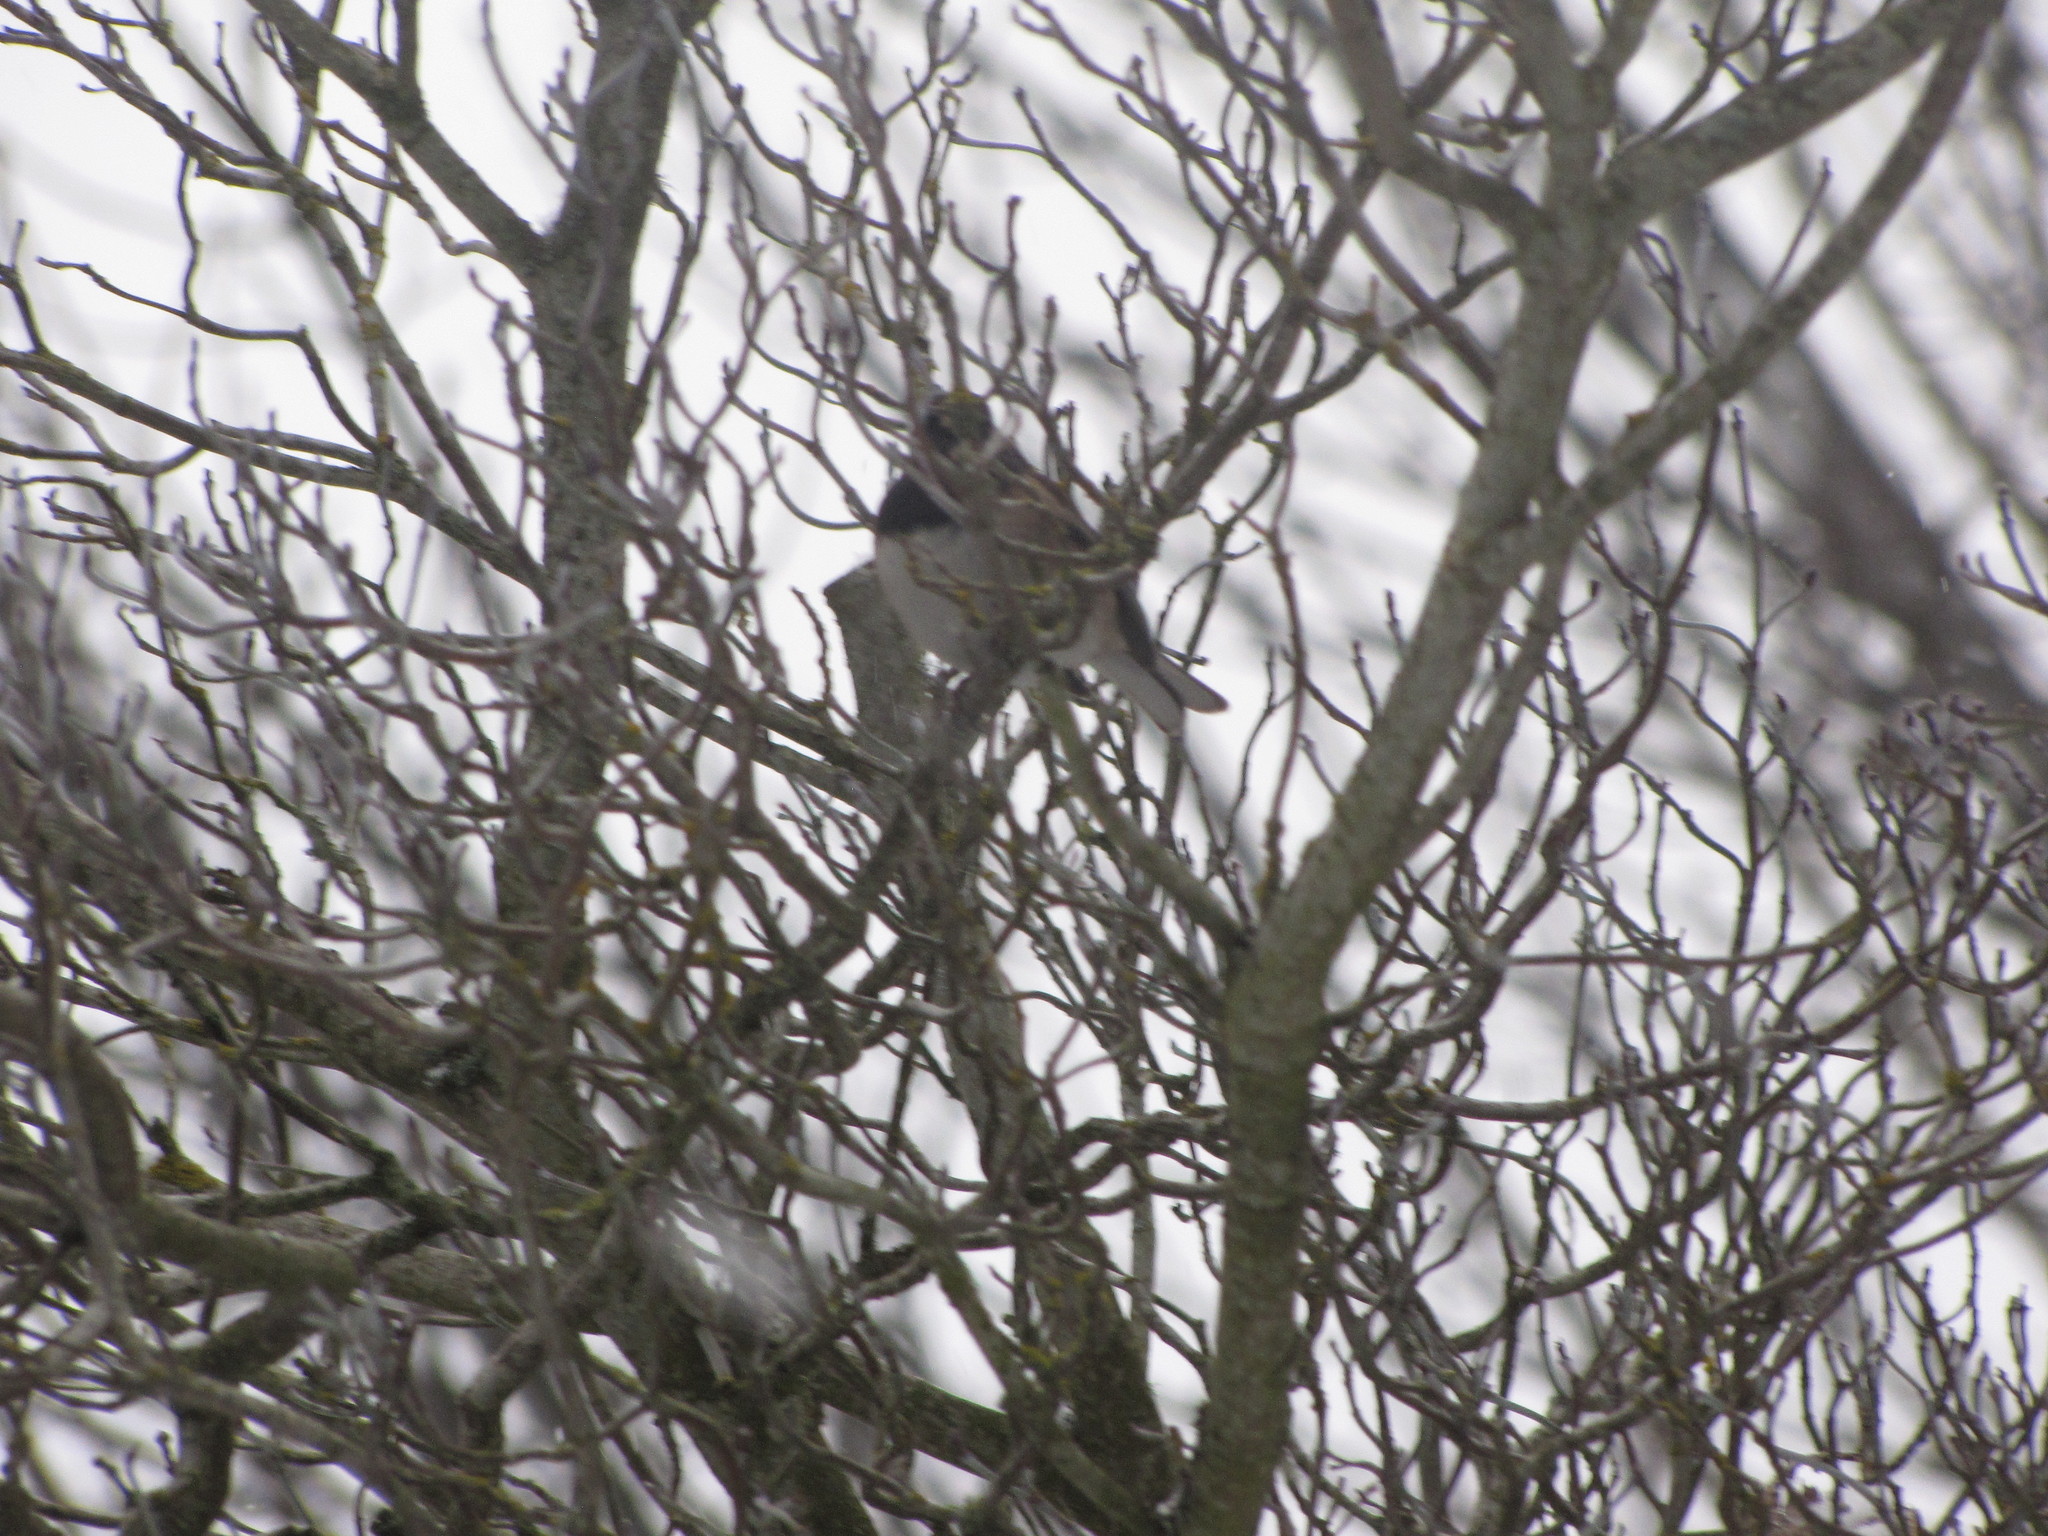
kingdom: Animalia
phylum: Chordata
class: Aves
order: Passeriformes
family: Passerellidae
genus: Junco
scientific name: Junco hyemalis
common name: Dark-eyed junco
